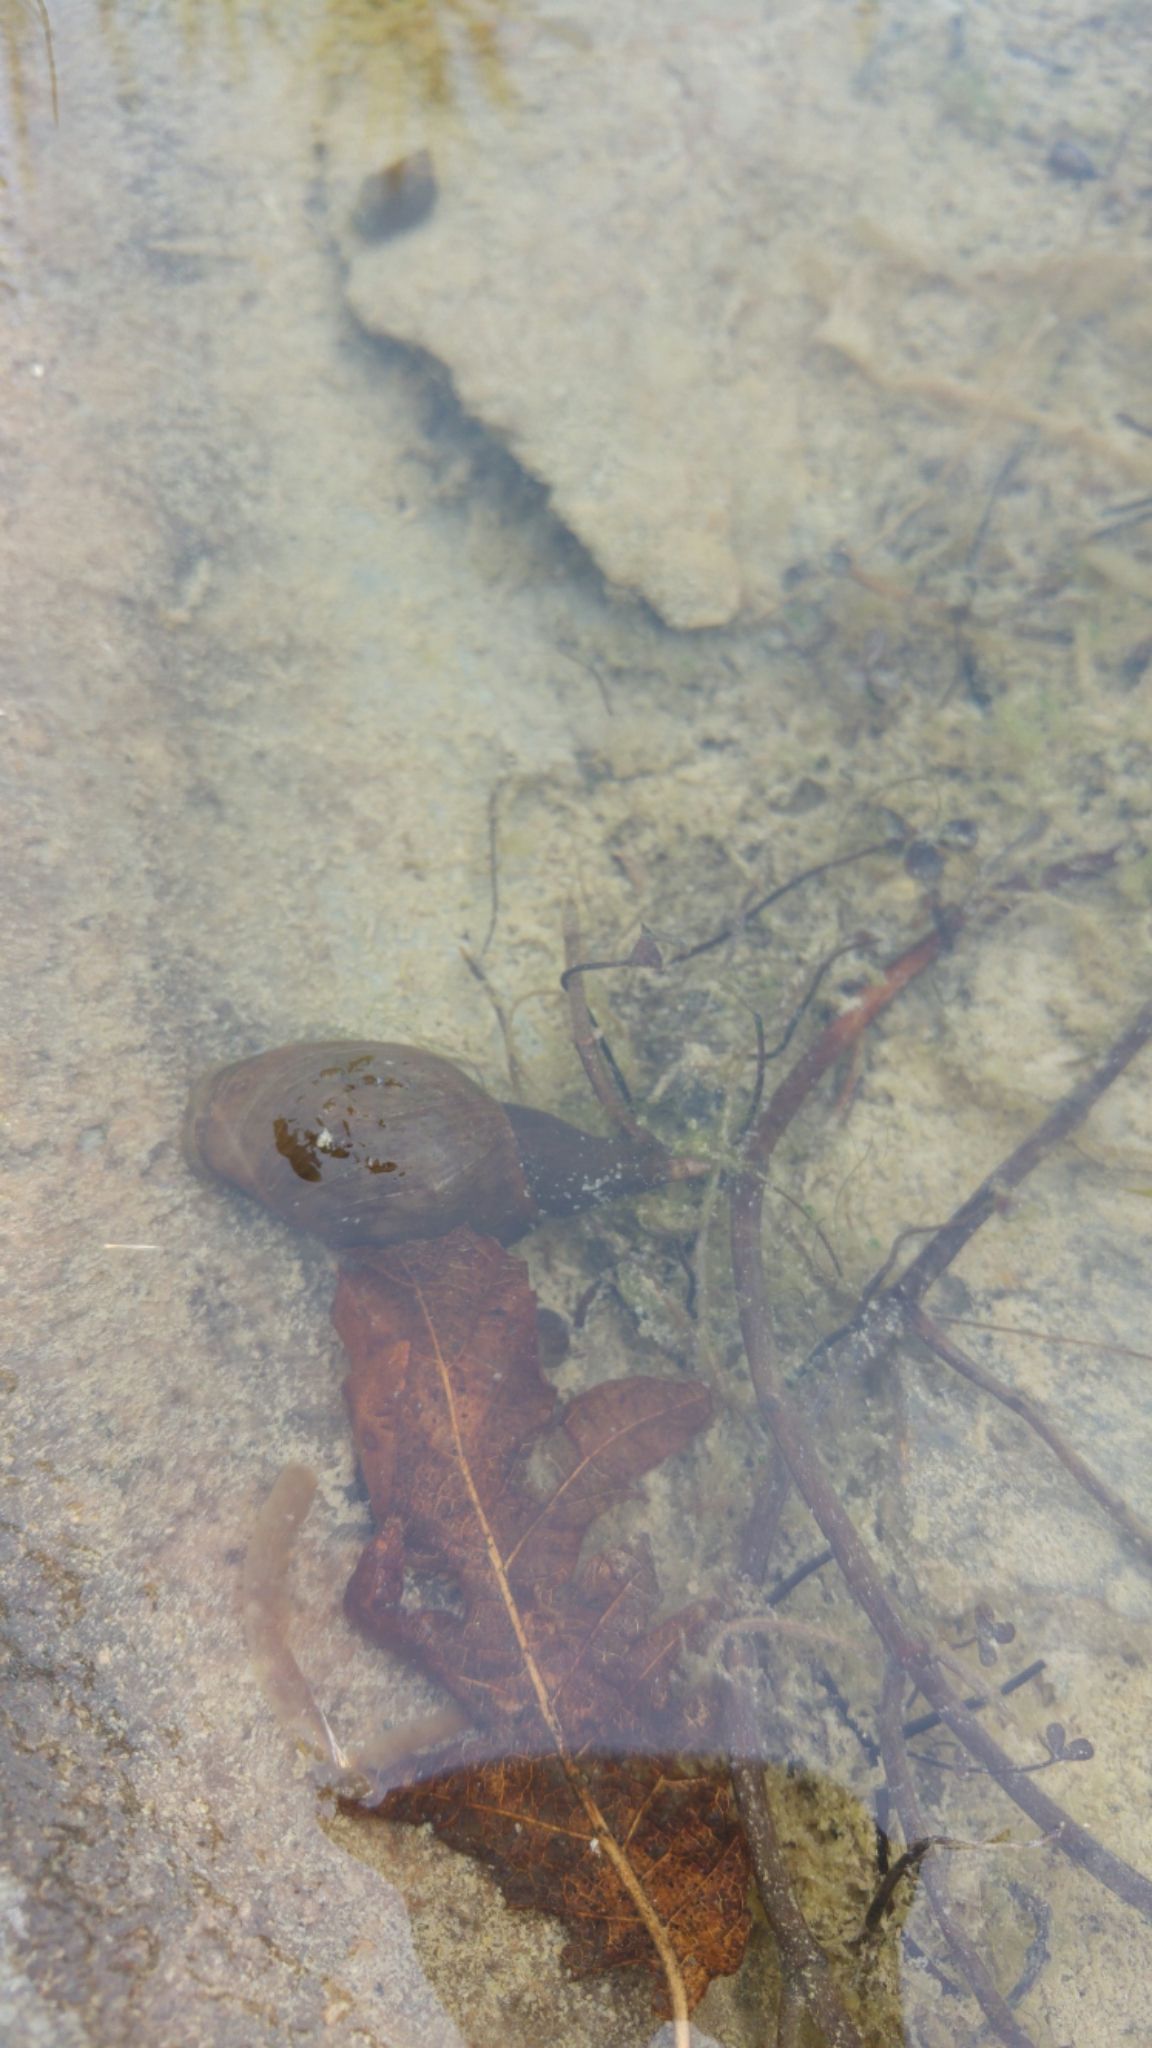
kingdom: Animalia
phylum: Mollusca
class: Gastropoda
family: Lymnaeidae
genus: Lymnaea
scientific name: Lymnaea stagnalis
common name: Great pond snail
